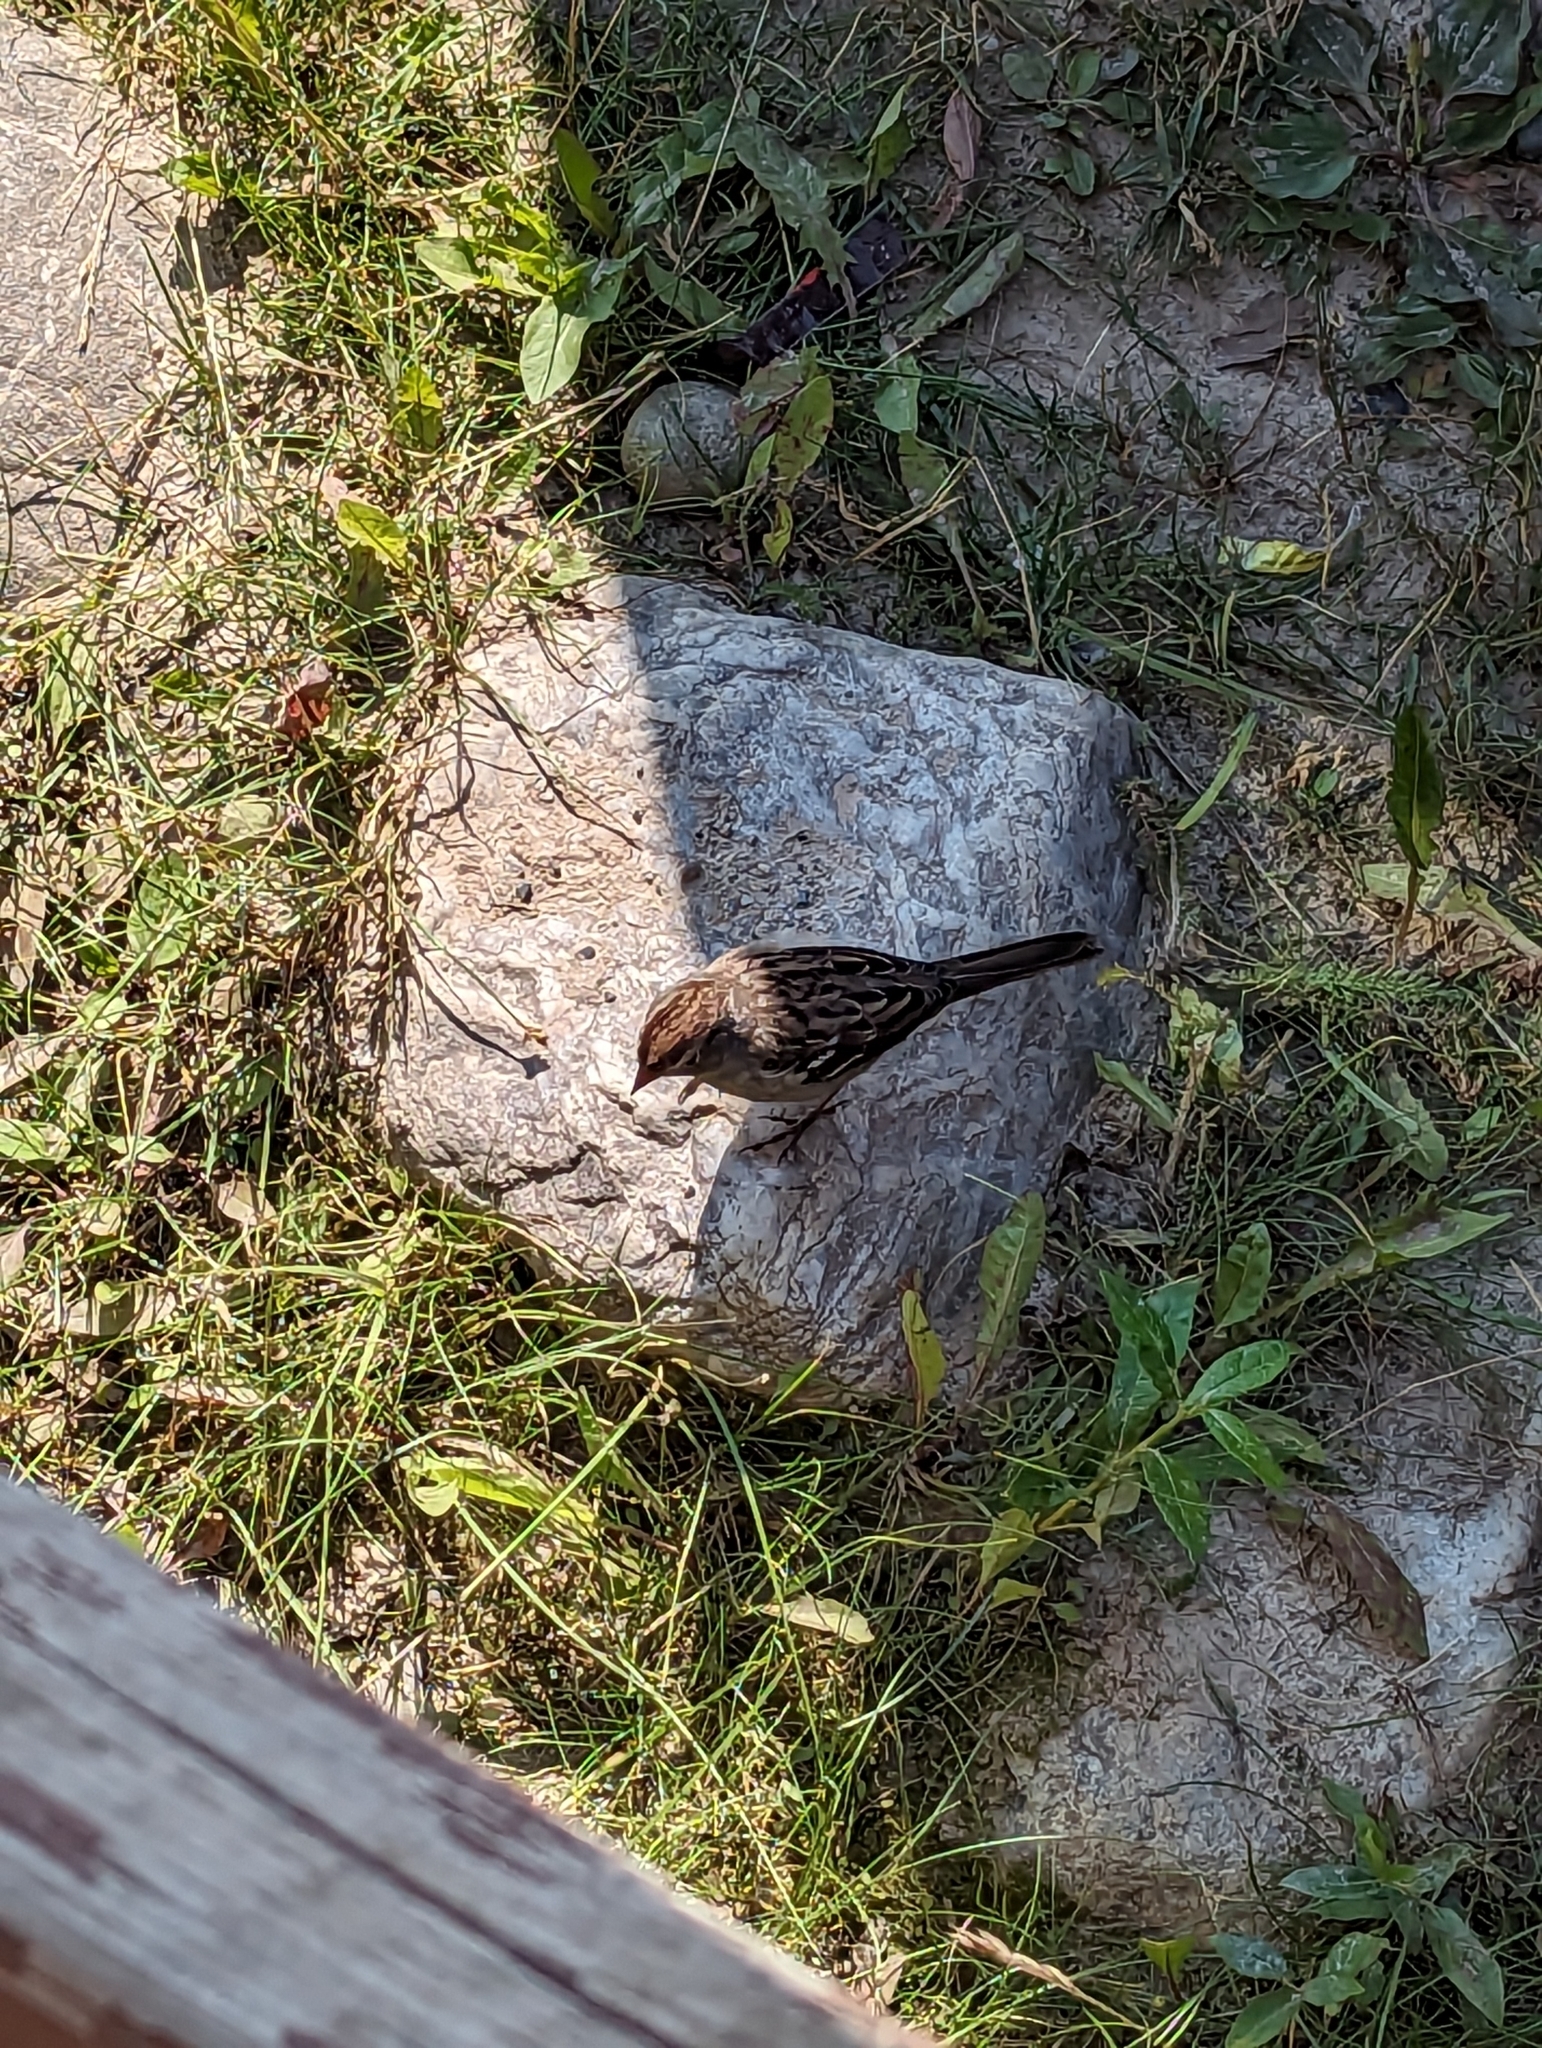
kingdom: Animalia
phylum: Chordata
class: Aves
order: Passeriformes
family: Passerellidae
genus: Zonotrichia
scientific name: Zonotrichia leucophrys
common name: White-crowned sparrow
